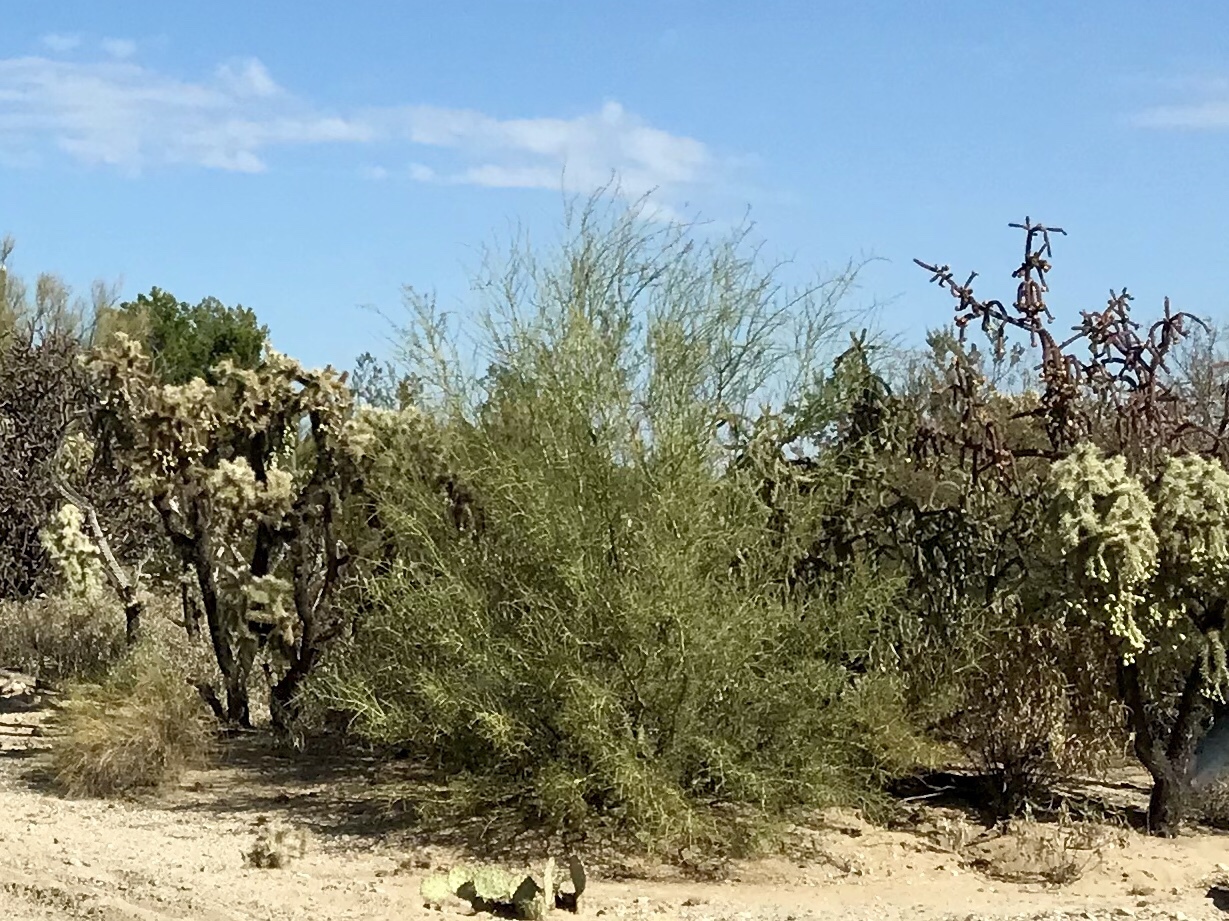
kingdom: Plantae
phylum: Tracheophyta
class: Magnoliopsida
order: Fabales
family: Fabaceae
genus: Parkinsonia
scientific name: Parkinsonia microphylla
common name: Yellow paloverde
